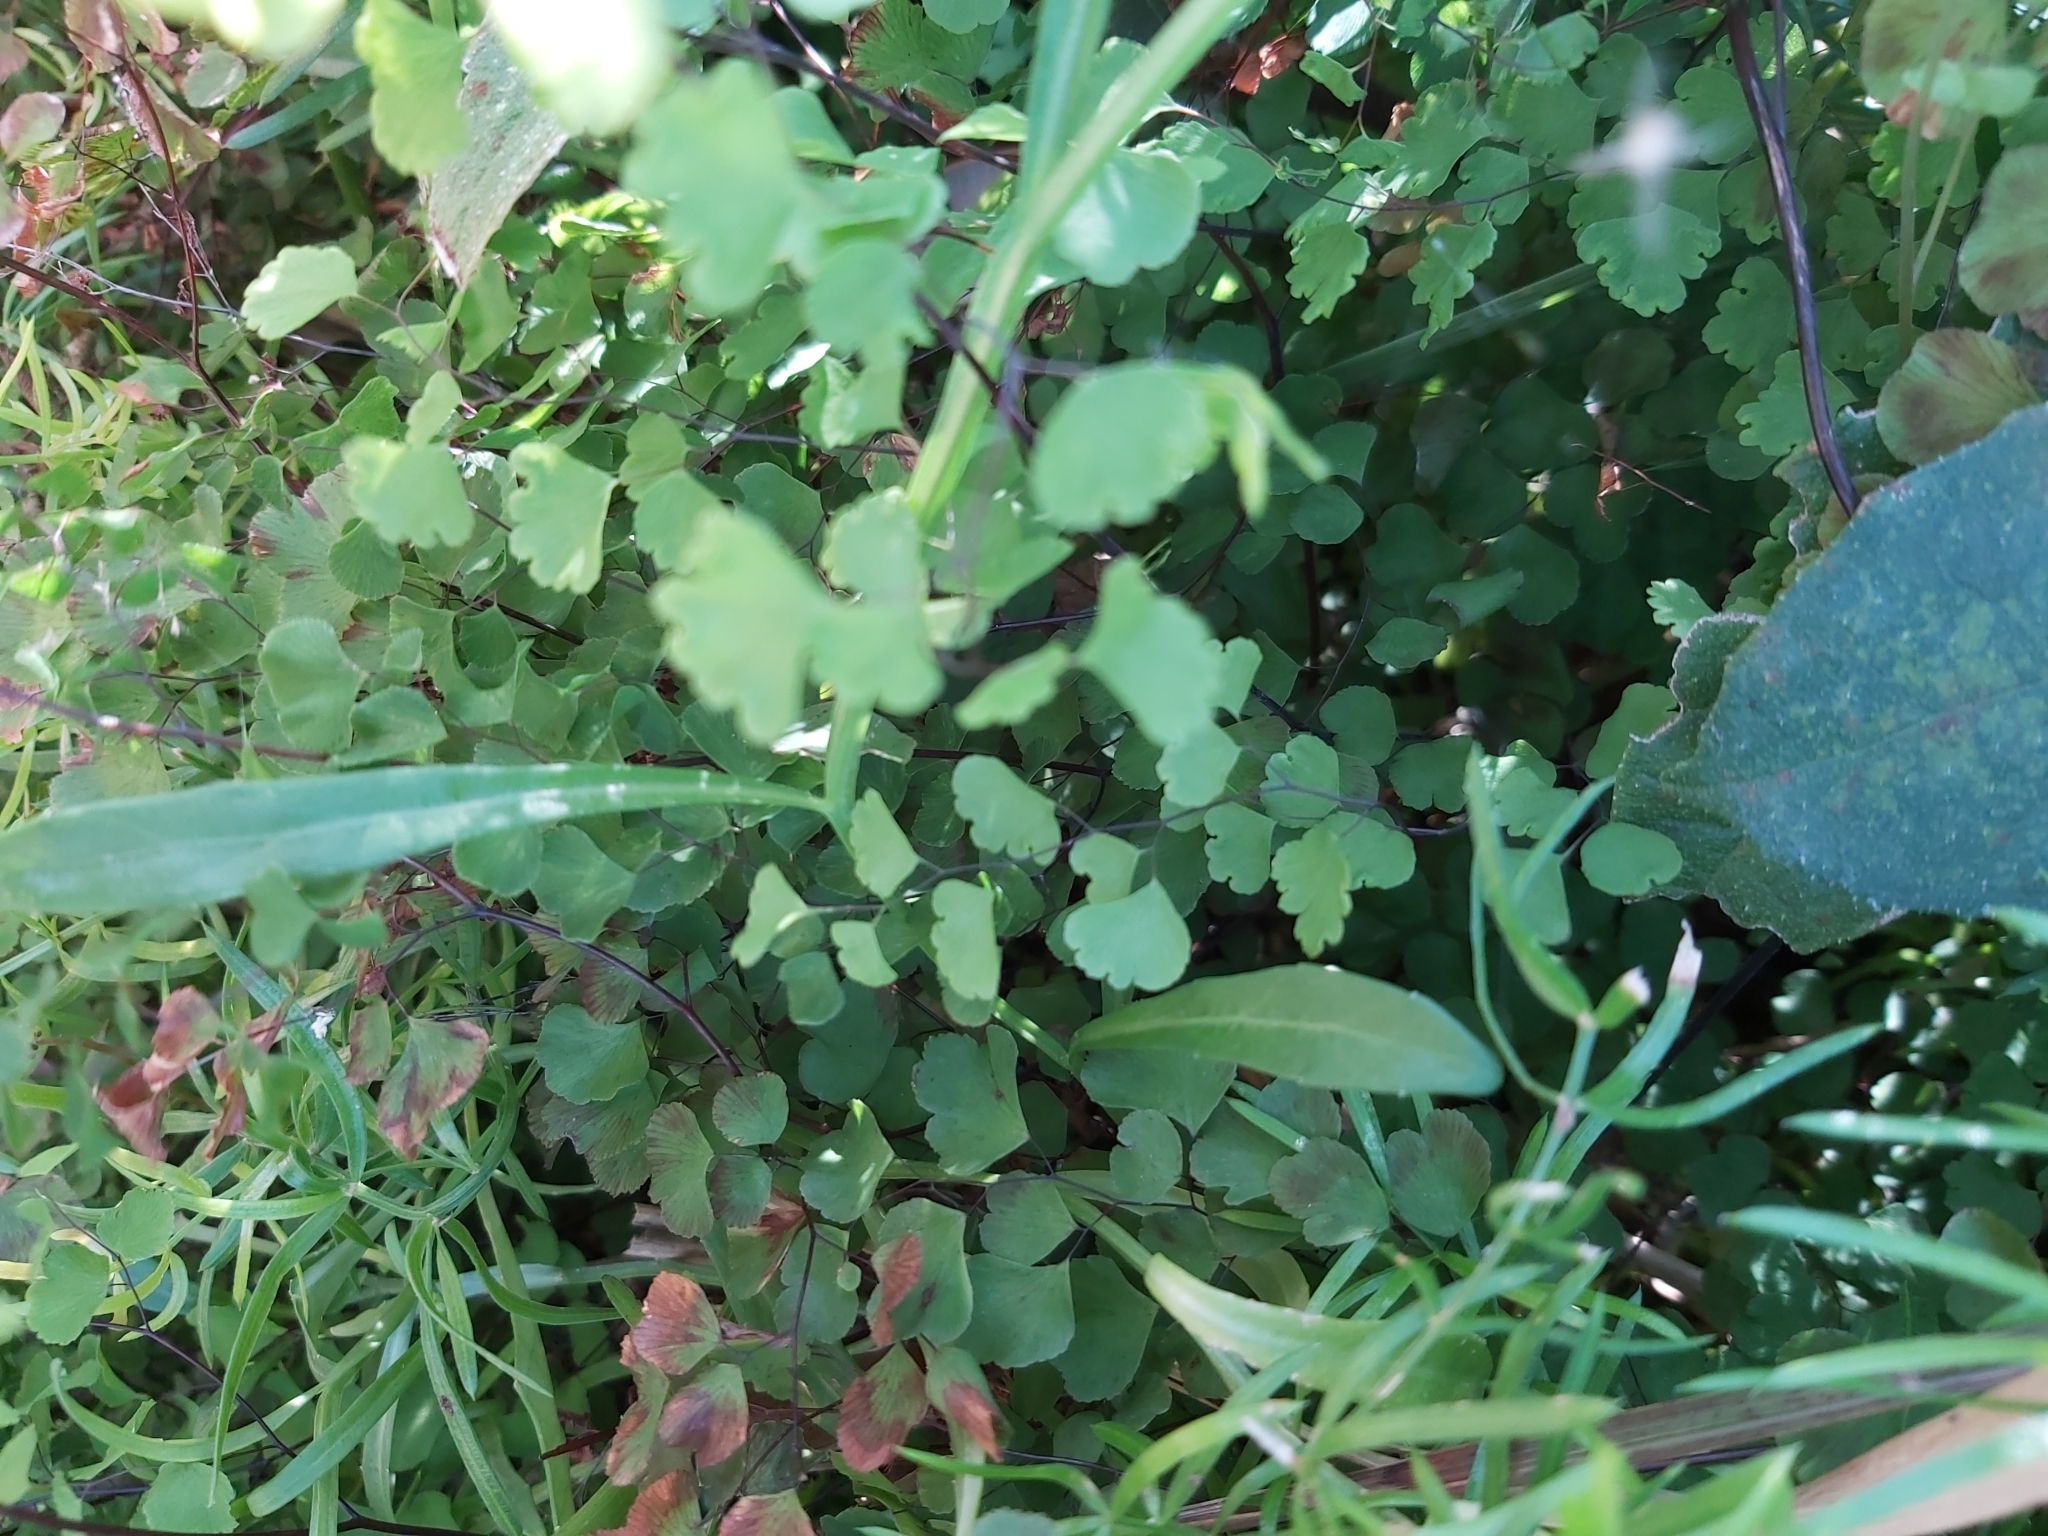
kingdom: Plantae
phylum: Tracheophyta
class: Polypodiopsida
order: Polypodiales
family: Pteridaceae
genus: Adiantum
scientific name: Adiantum aethiopicum
